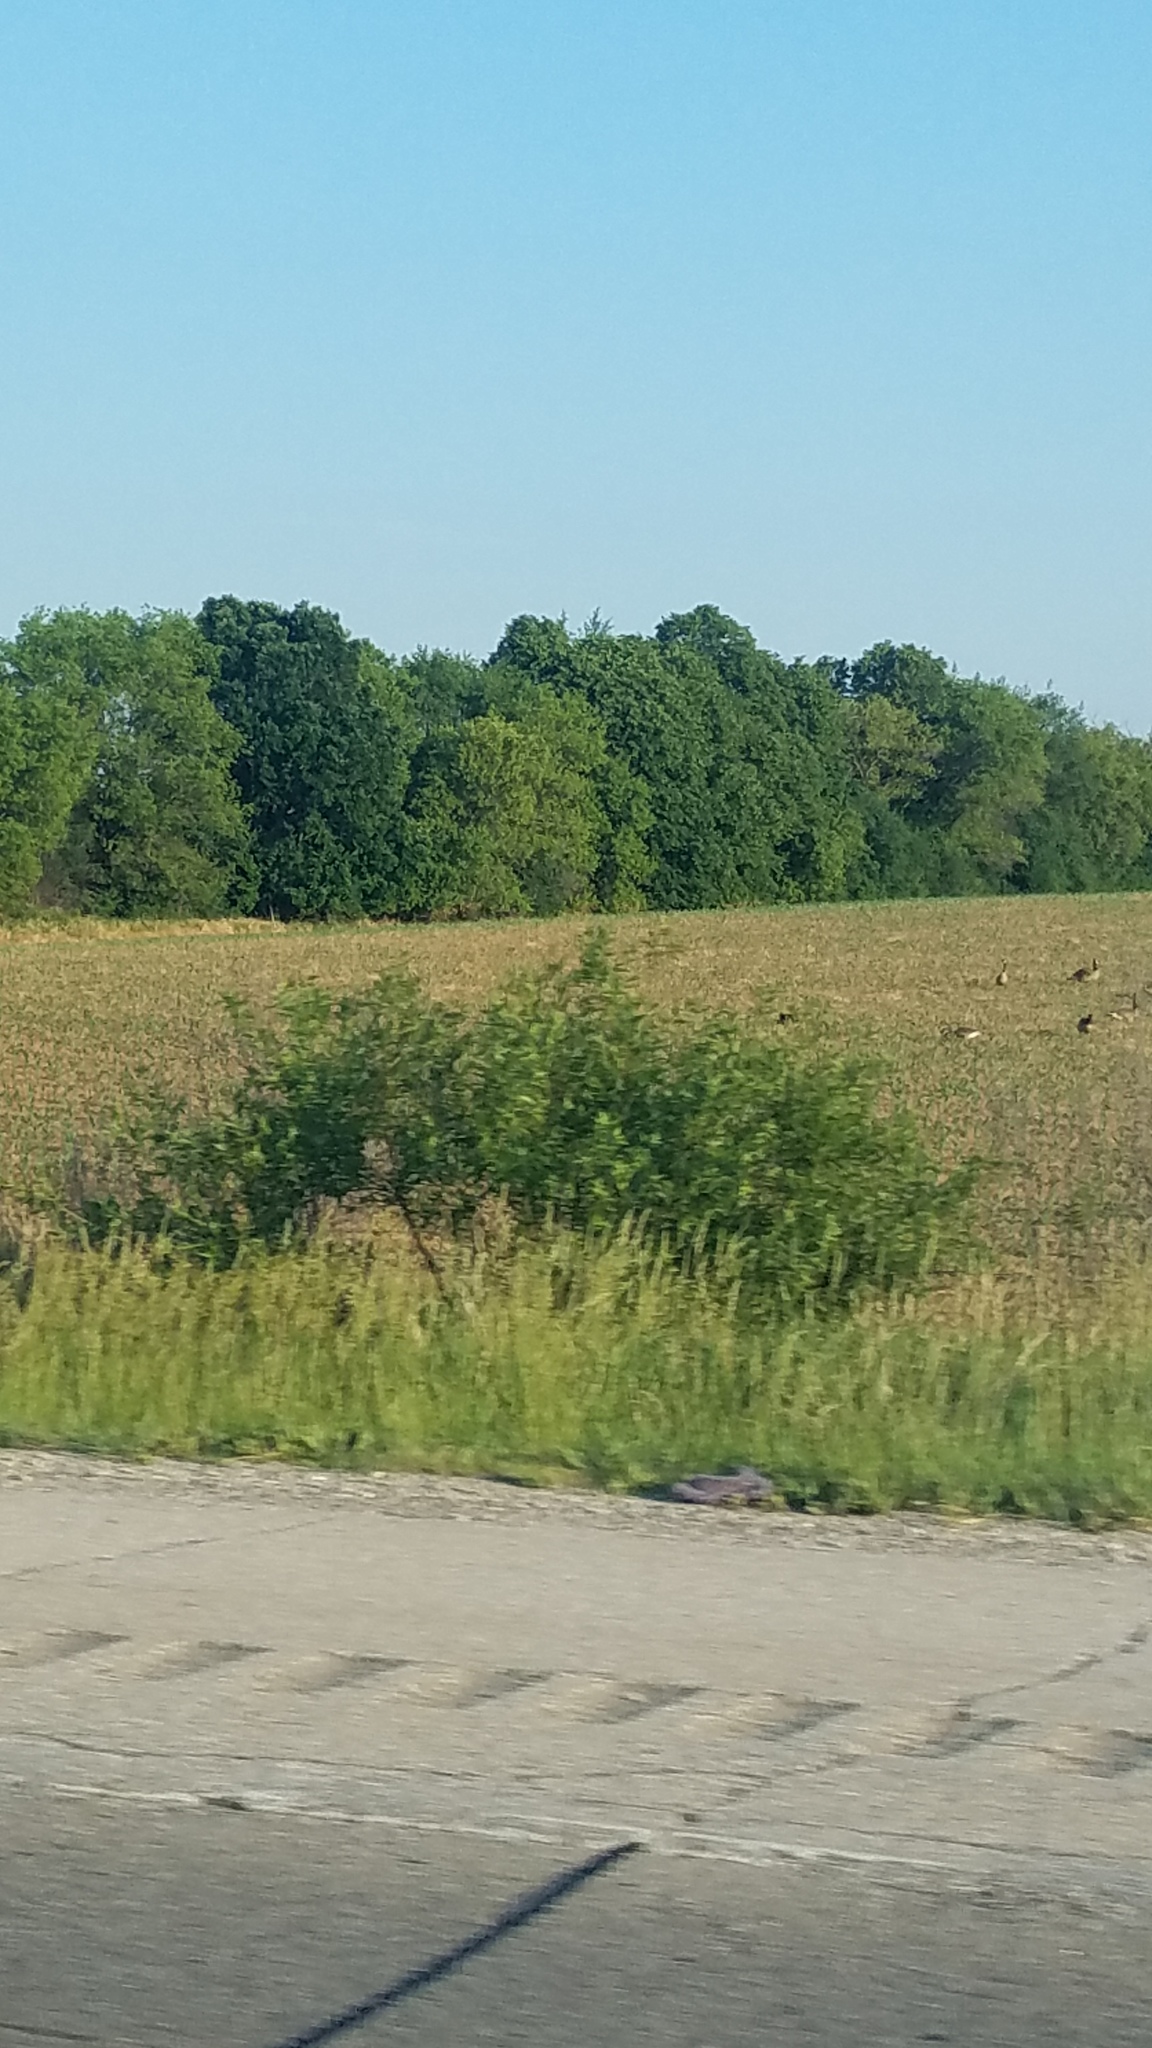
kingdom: Animalia
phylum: Chordata
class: Aves
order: Anseriformes
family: Anatidae
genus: Branta
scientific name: Branta canadensis
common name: Canada goose
